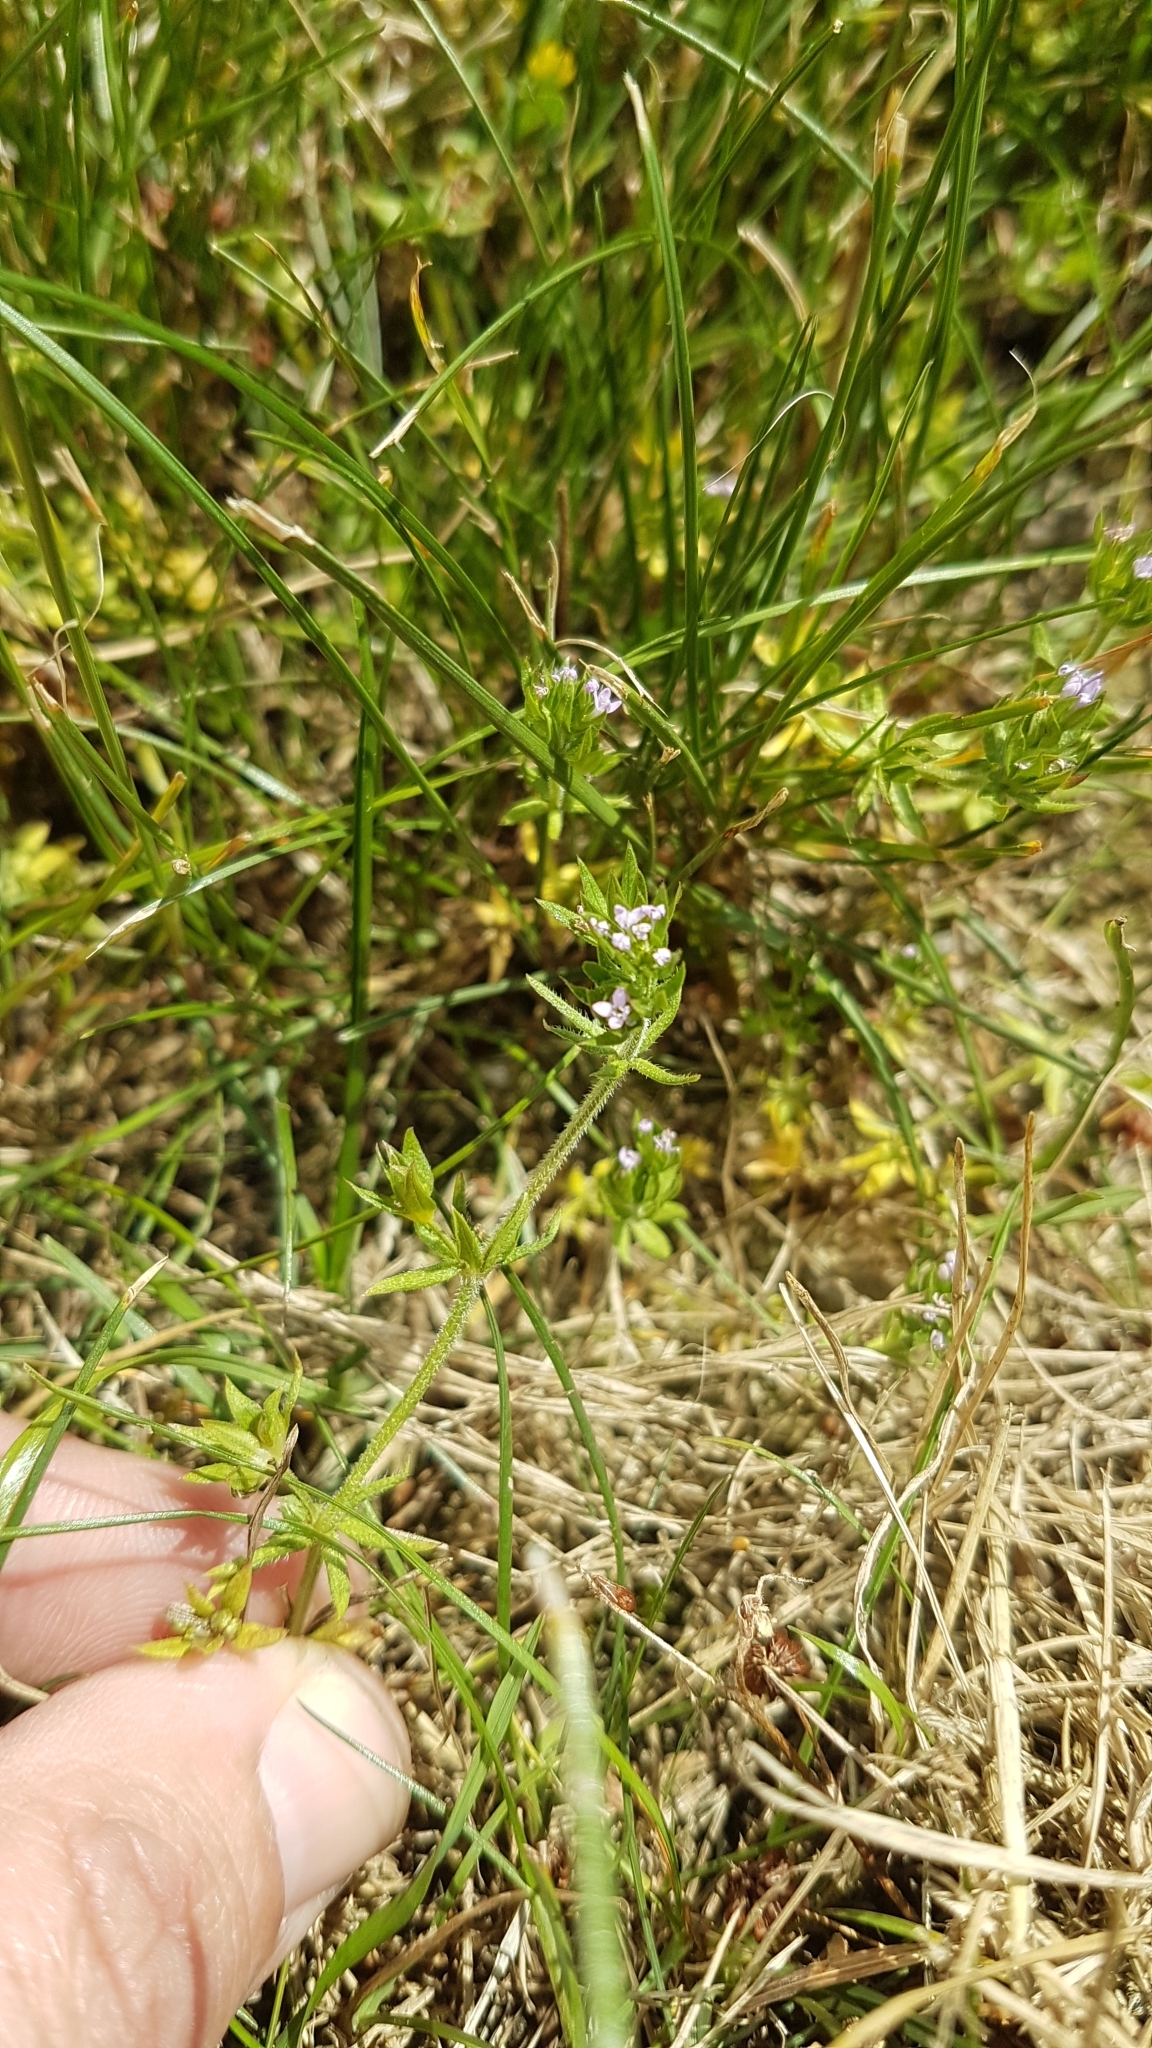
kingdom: Plantae
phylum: Tracheophyta
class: Magnoliopsida
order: Gentianales
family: Rubiaceae
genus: Sherardia
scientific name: Sherardia arvensis
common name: Field madder
